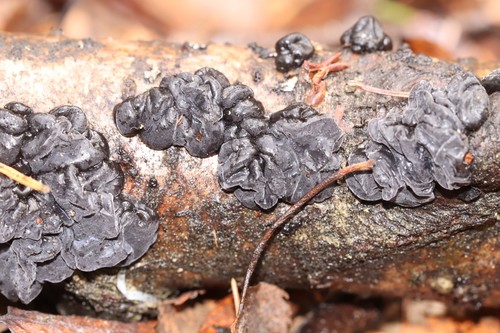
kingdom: Fungi
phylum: Basidiomycota
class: Agaricomycetes
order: Auriculariales
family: Auriculariaceae
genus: Exidia
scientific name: Exidia glandulosa
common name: Witches' butter
